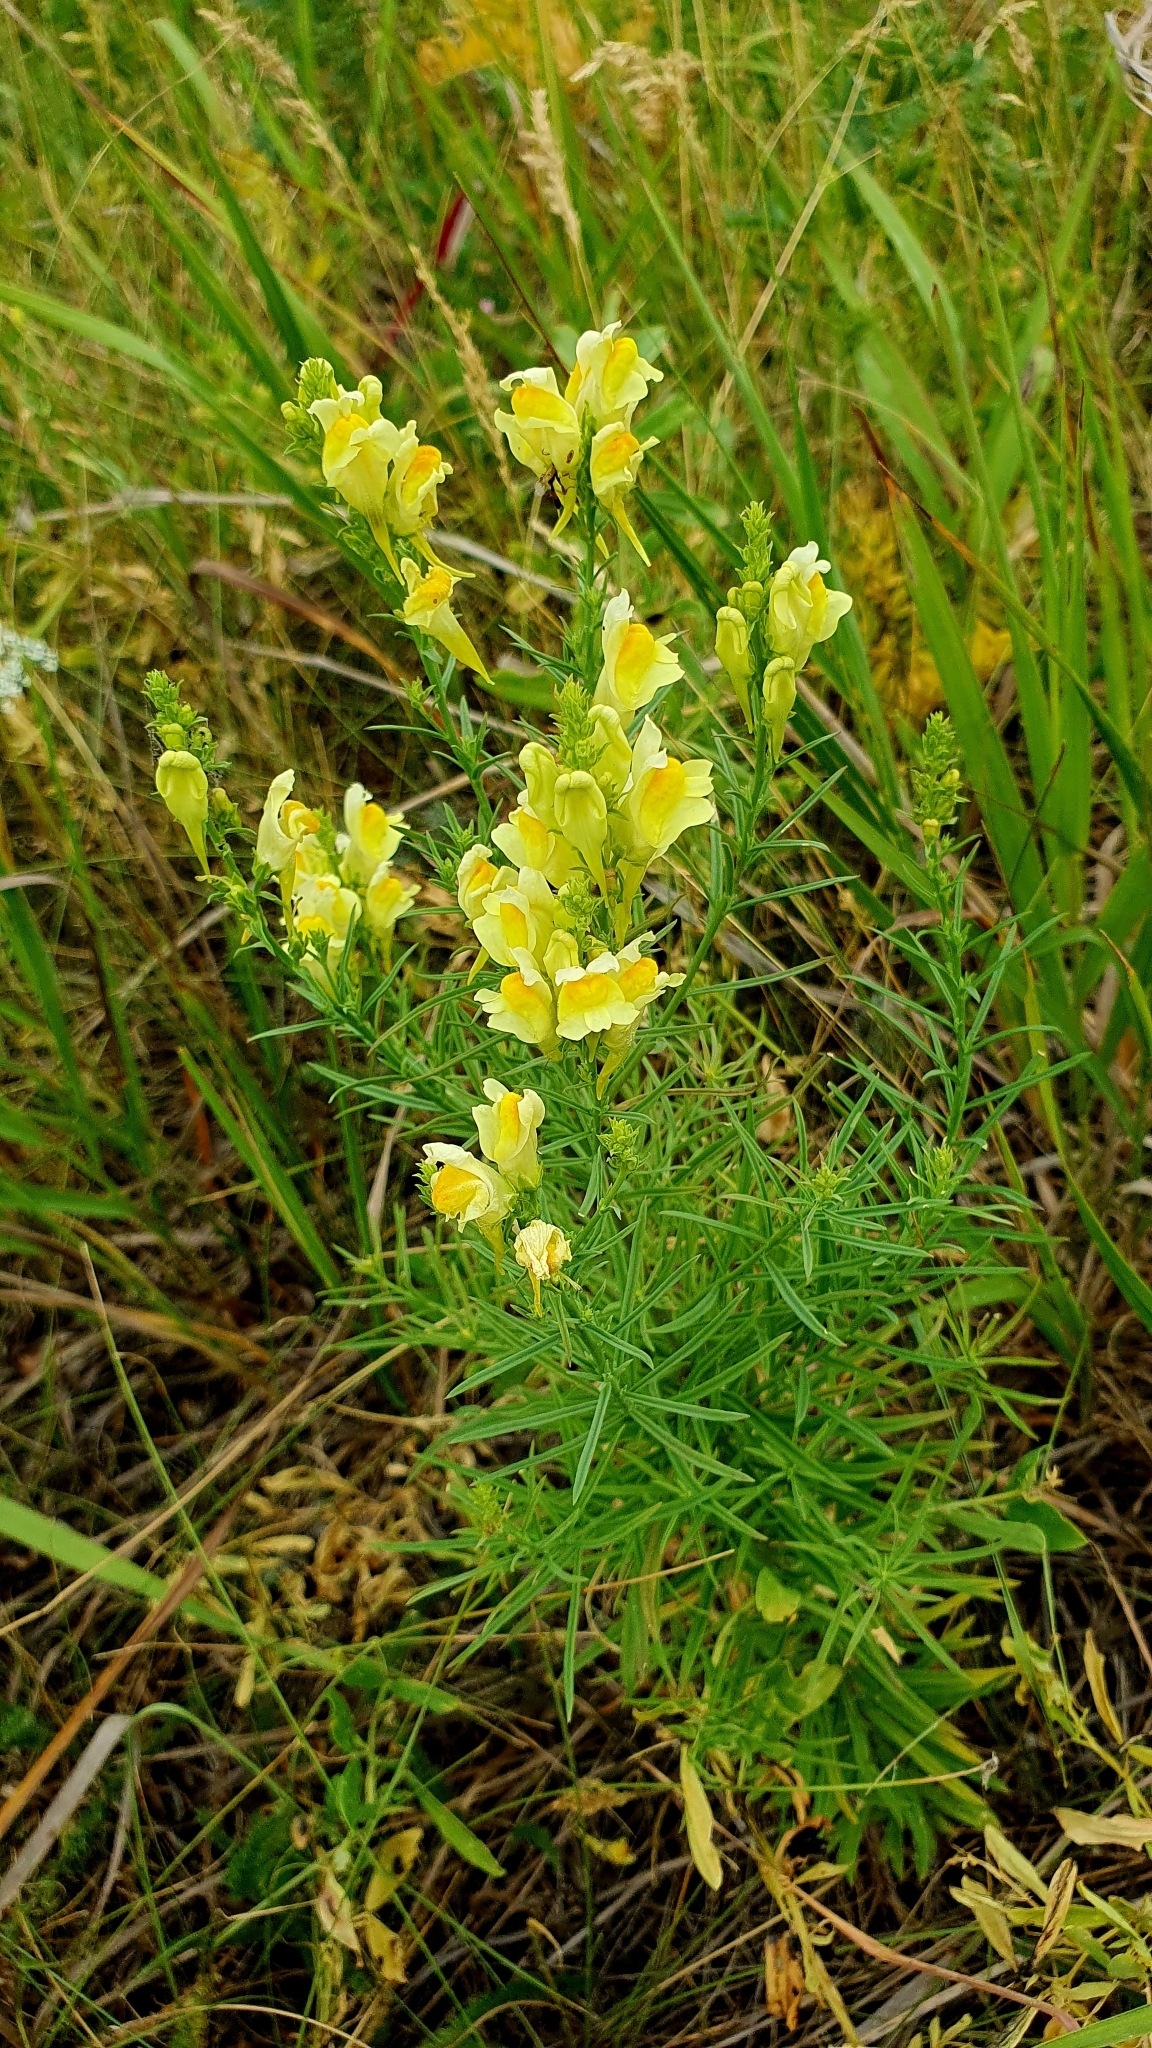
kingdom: Plantae
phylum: Tracheophyta
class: Magnoliopsida
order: Lamiales
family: Plantaginaceae
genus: Linaria
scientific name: Linaria vulgaris
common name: Butter and eggs
